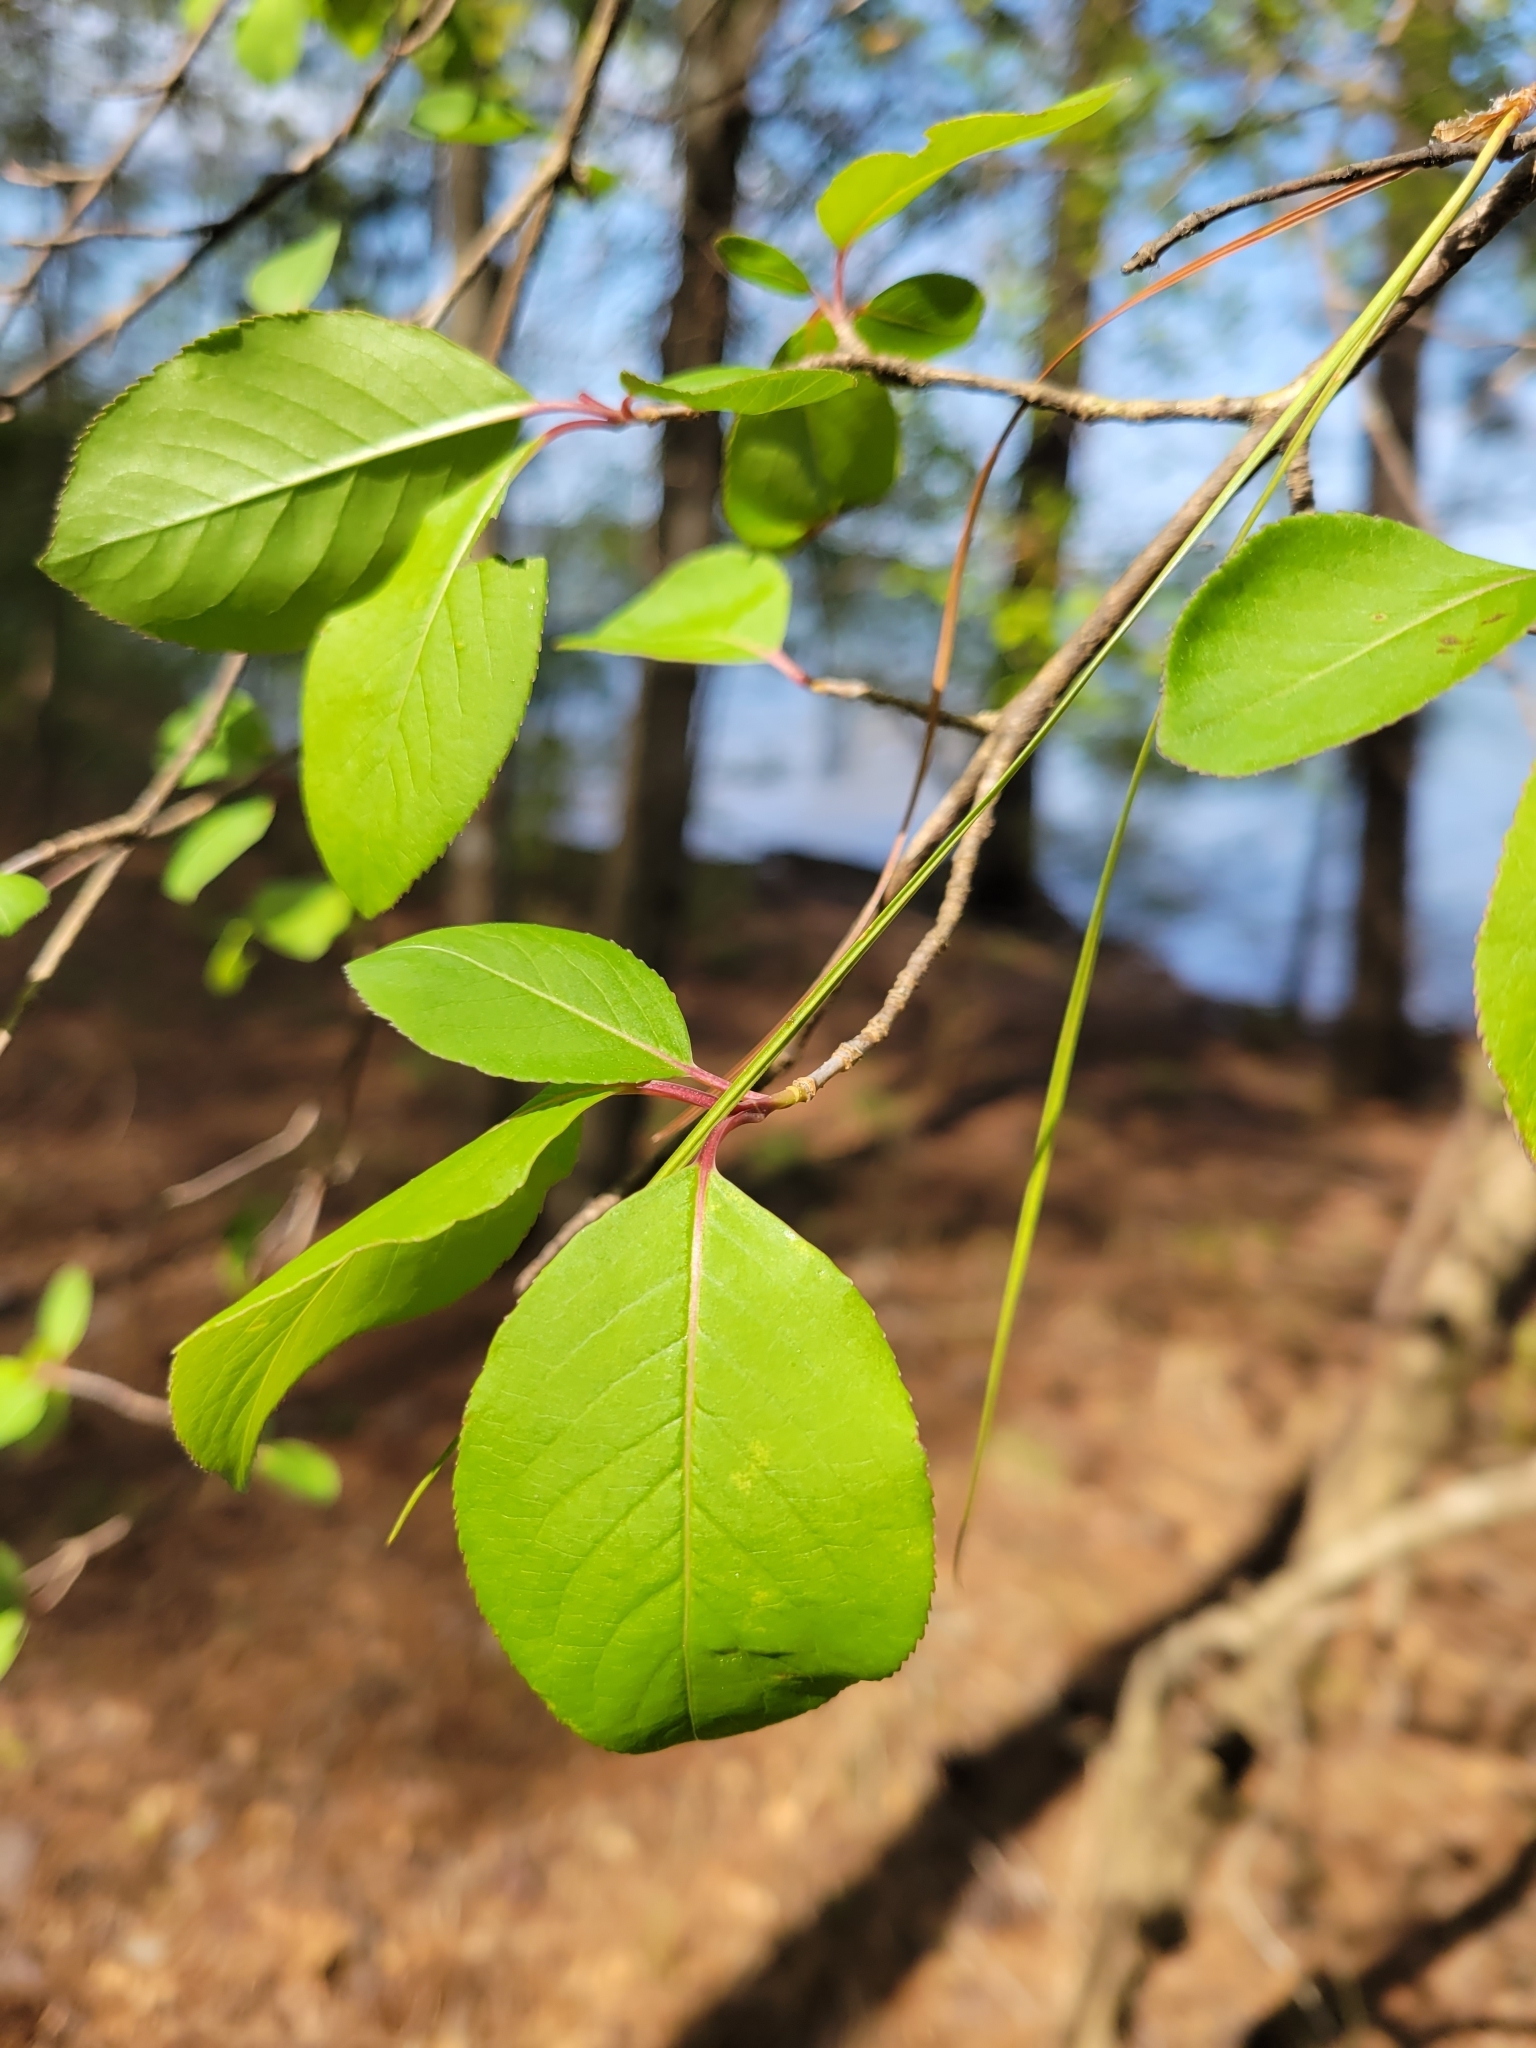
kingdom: Plantae
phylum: Tracheophyta
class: Magnoliopsida
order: Dipsacales
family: Viburnaceae
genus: Viburnum
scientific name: Viburnum prunifolium
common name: Black haw
